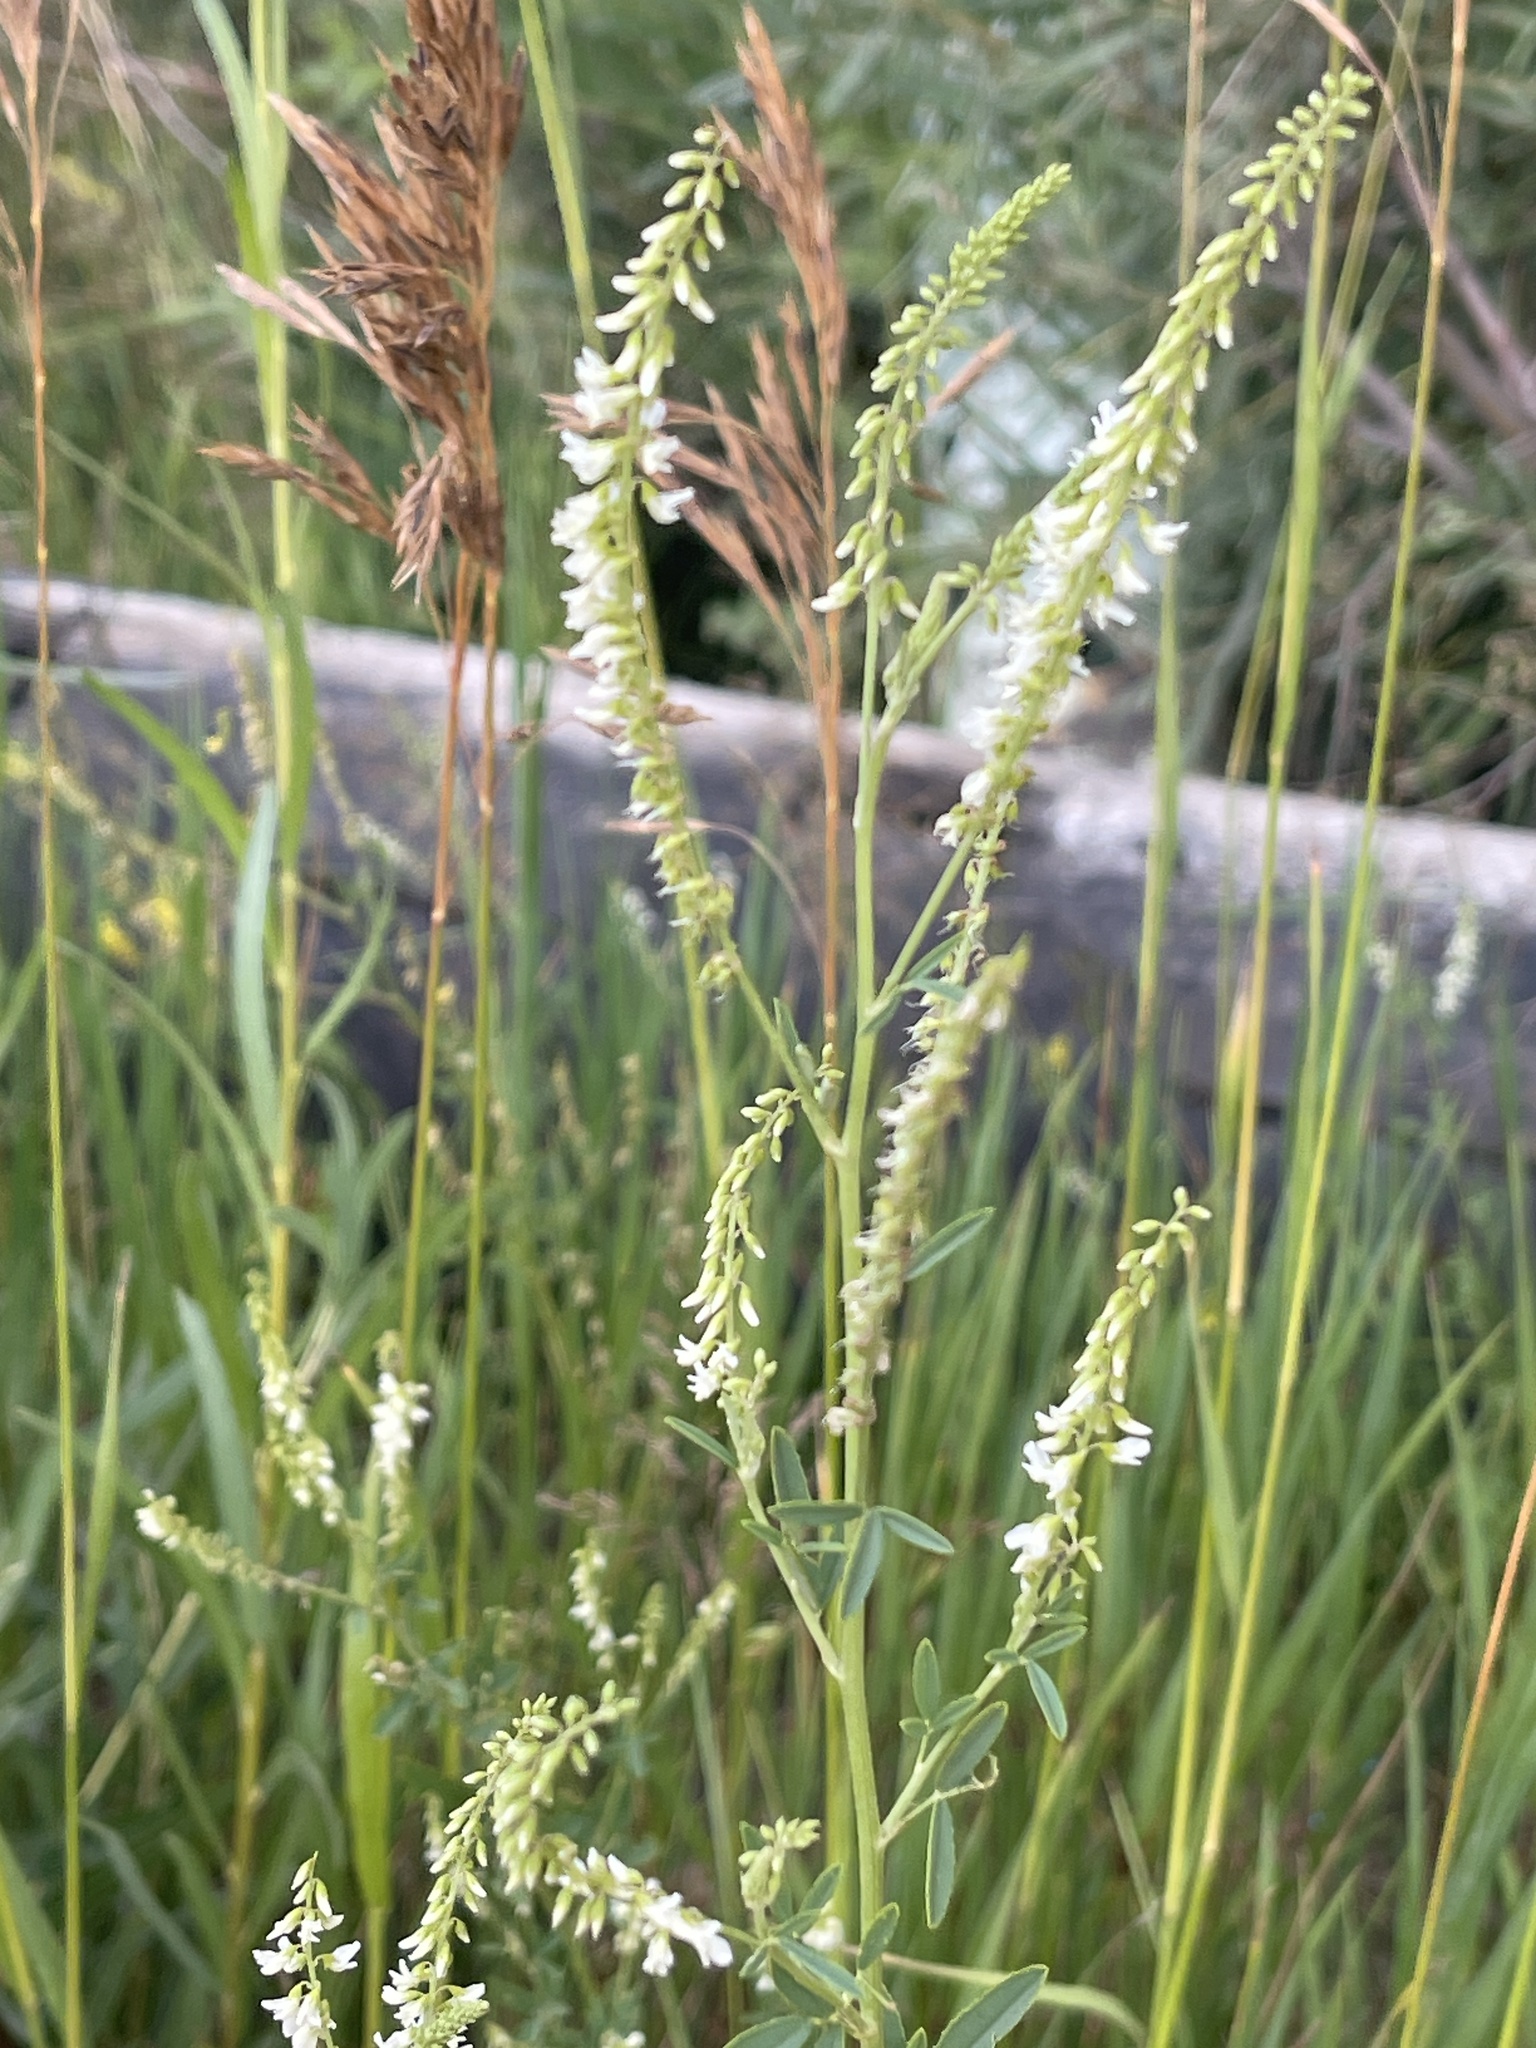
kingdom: Plantae
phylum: Tracheophyta
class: Magnoliopsida
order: Fabales
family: Fabaceae
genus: Melilotus
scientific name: Melilotus albus
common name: White melilot
